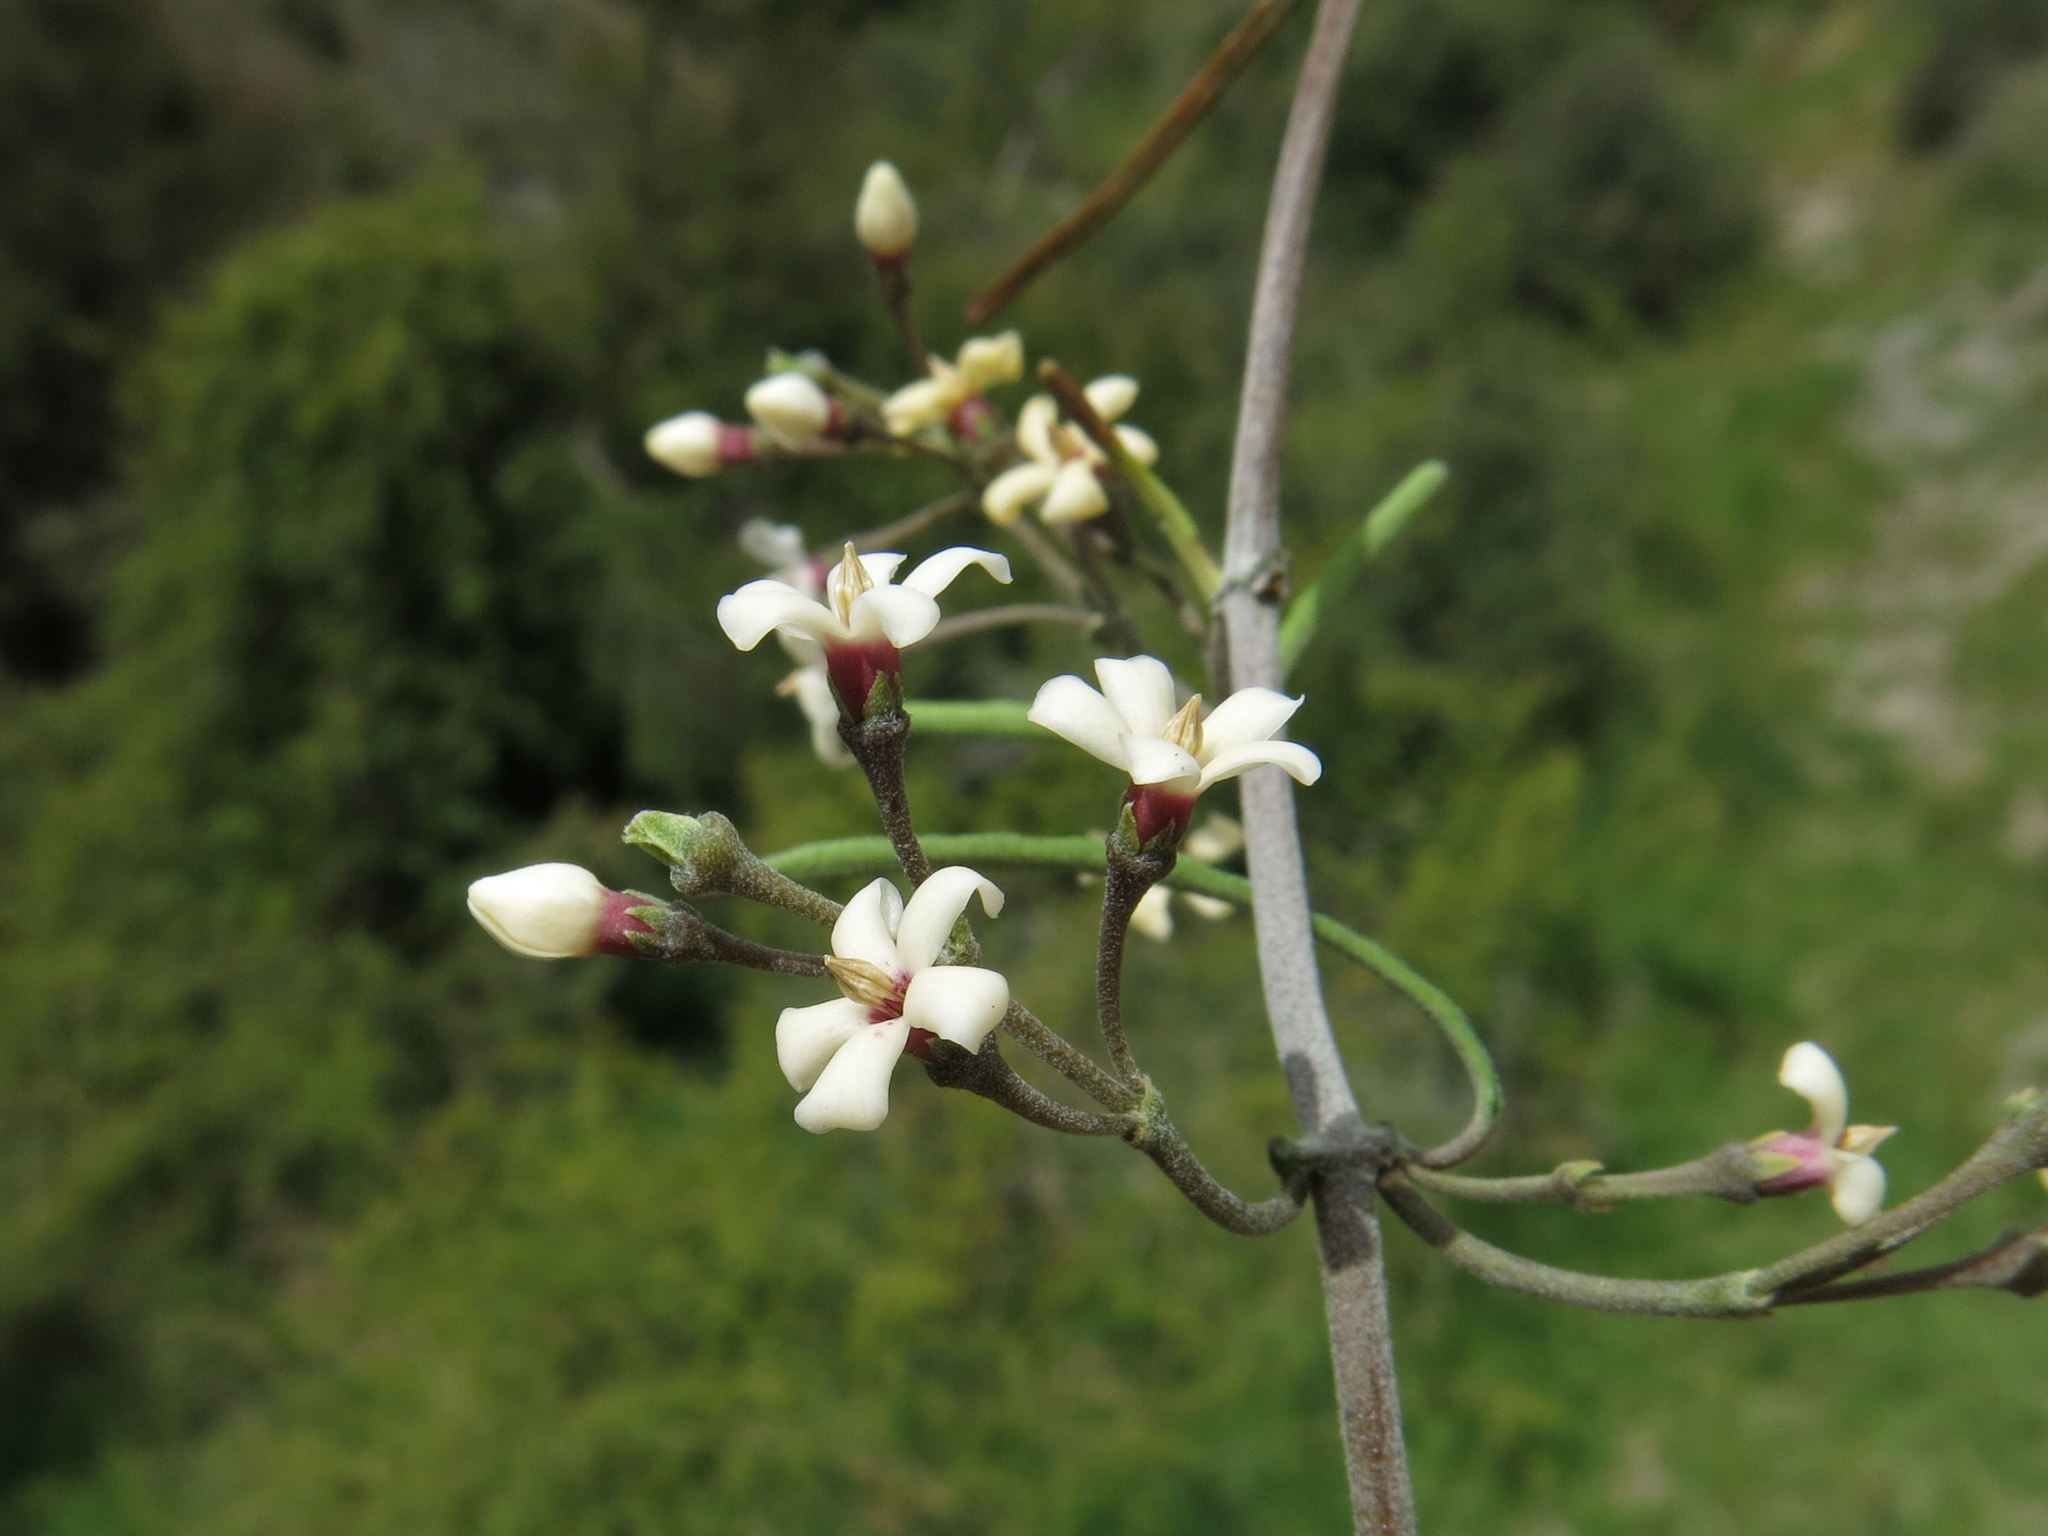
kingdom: Plantae
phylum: Tracheophyta
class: Magnoliopsida
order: Gentianales
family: Apocynaceae
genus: Parsonsia
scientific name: Parsonsia capsularis
